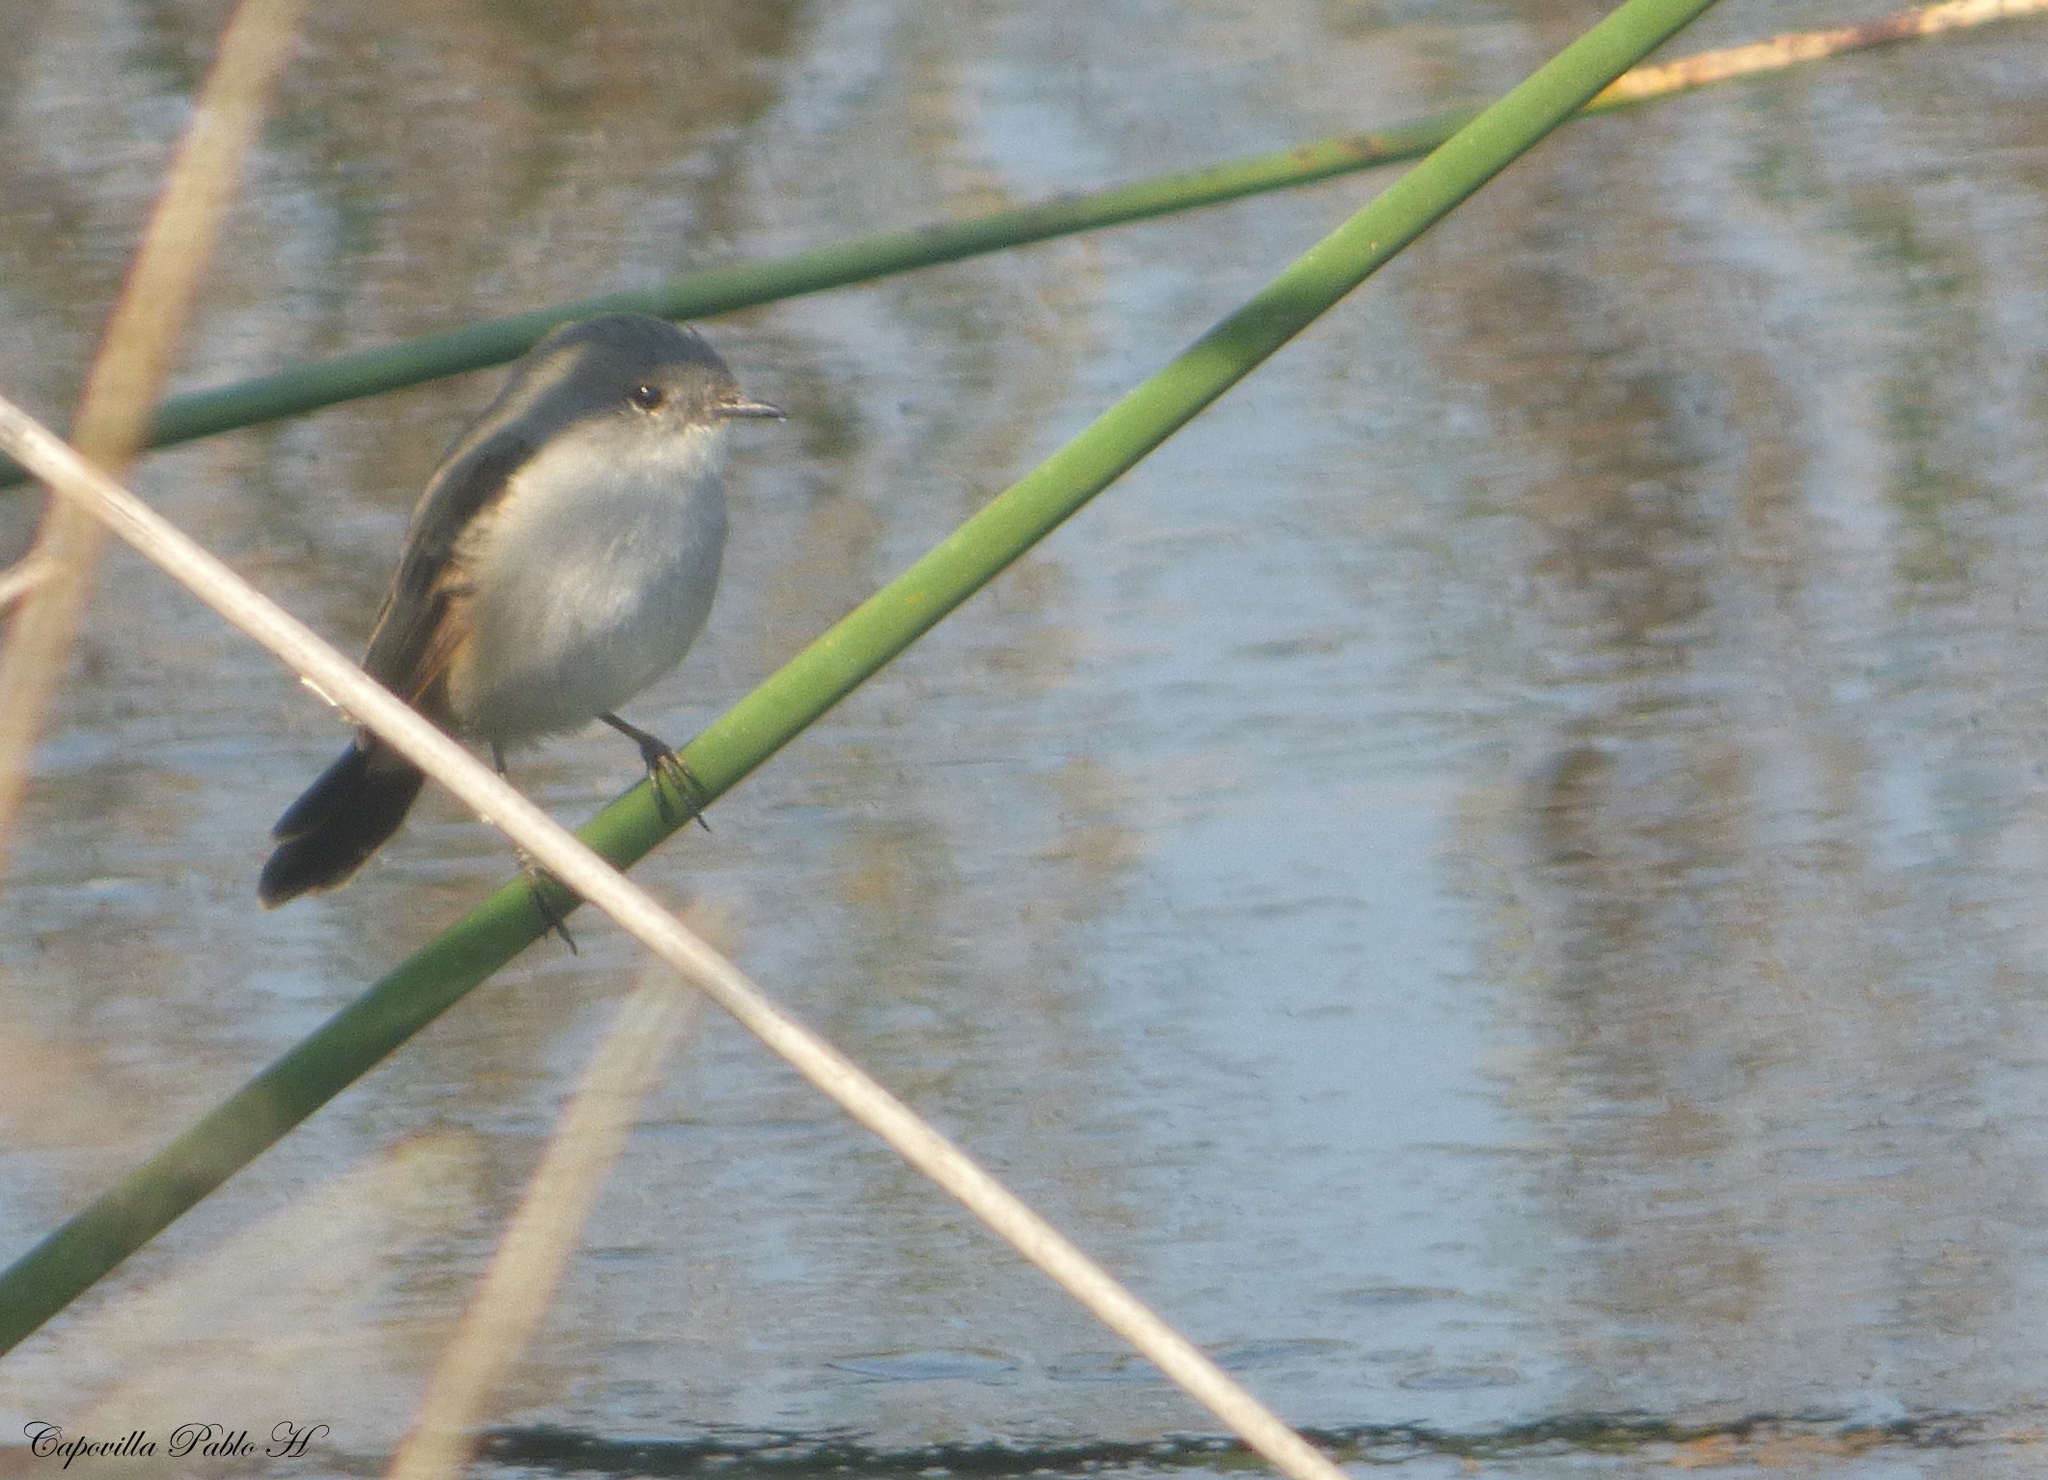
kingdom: Animalia
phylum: Chordata
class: Aves
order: Passeriformes
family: Tyrannidae
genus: Serpophaga
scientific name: Serpophaga nigricans
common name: Sooty tyrannulet
